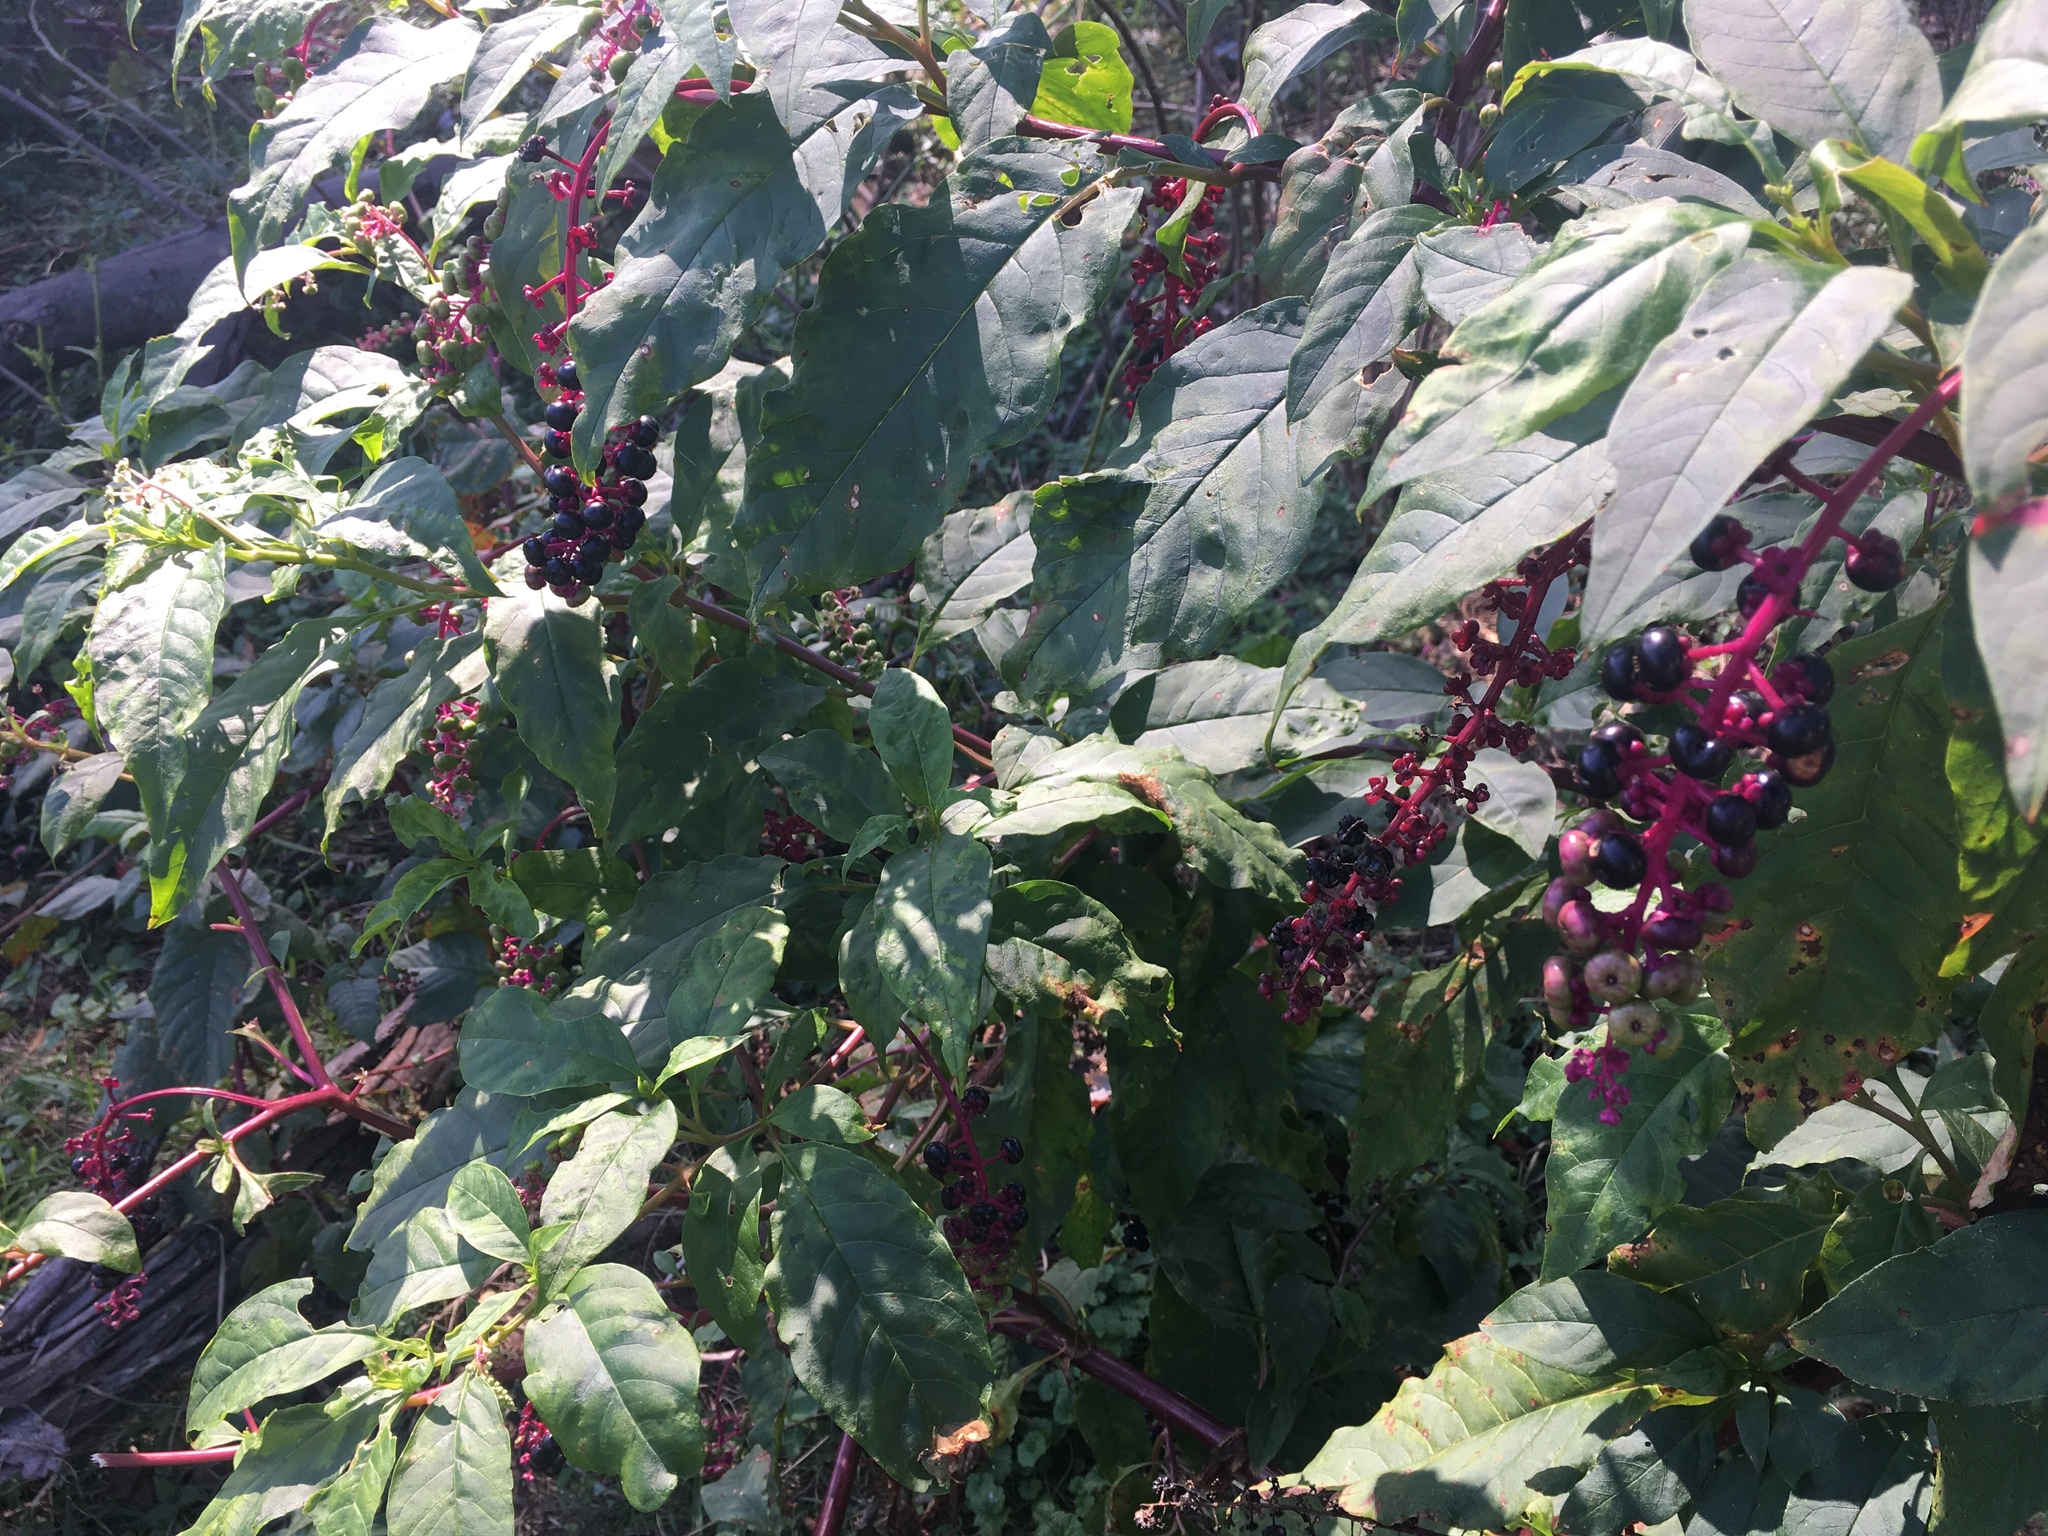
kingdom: Plantae
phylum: Tracheophyta
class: Magnoliopsida
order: Caryophyllales
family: Phytolaccaceae
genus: Phytolacca
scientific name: Phytolacca americana
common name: American pokeweed
